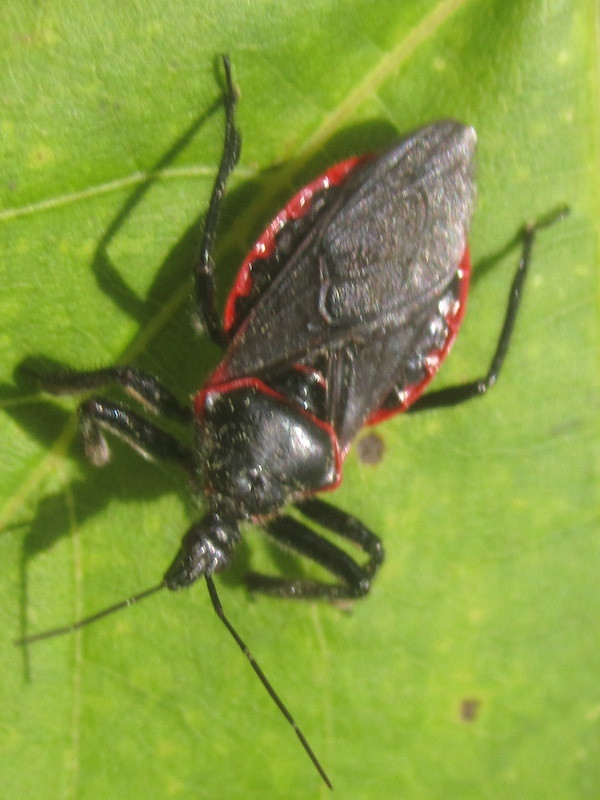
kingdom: Animalia
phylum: Arthropoda
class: Insecta
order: Hemiptera
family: Reduviidae
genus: Apiomerus
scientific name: Apiomerus crassipes
